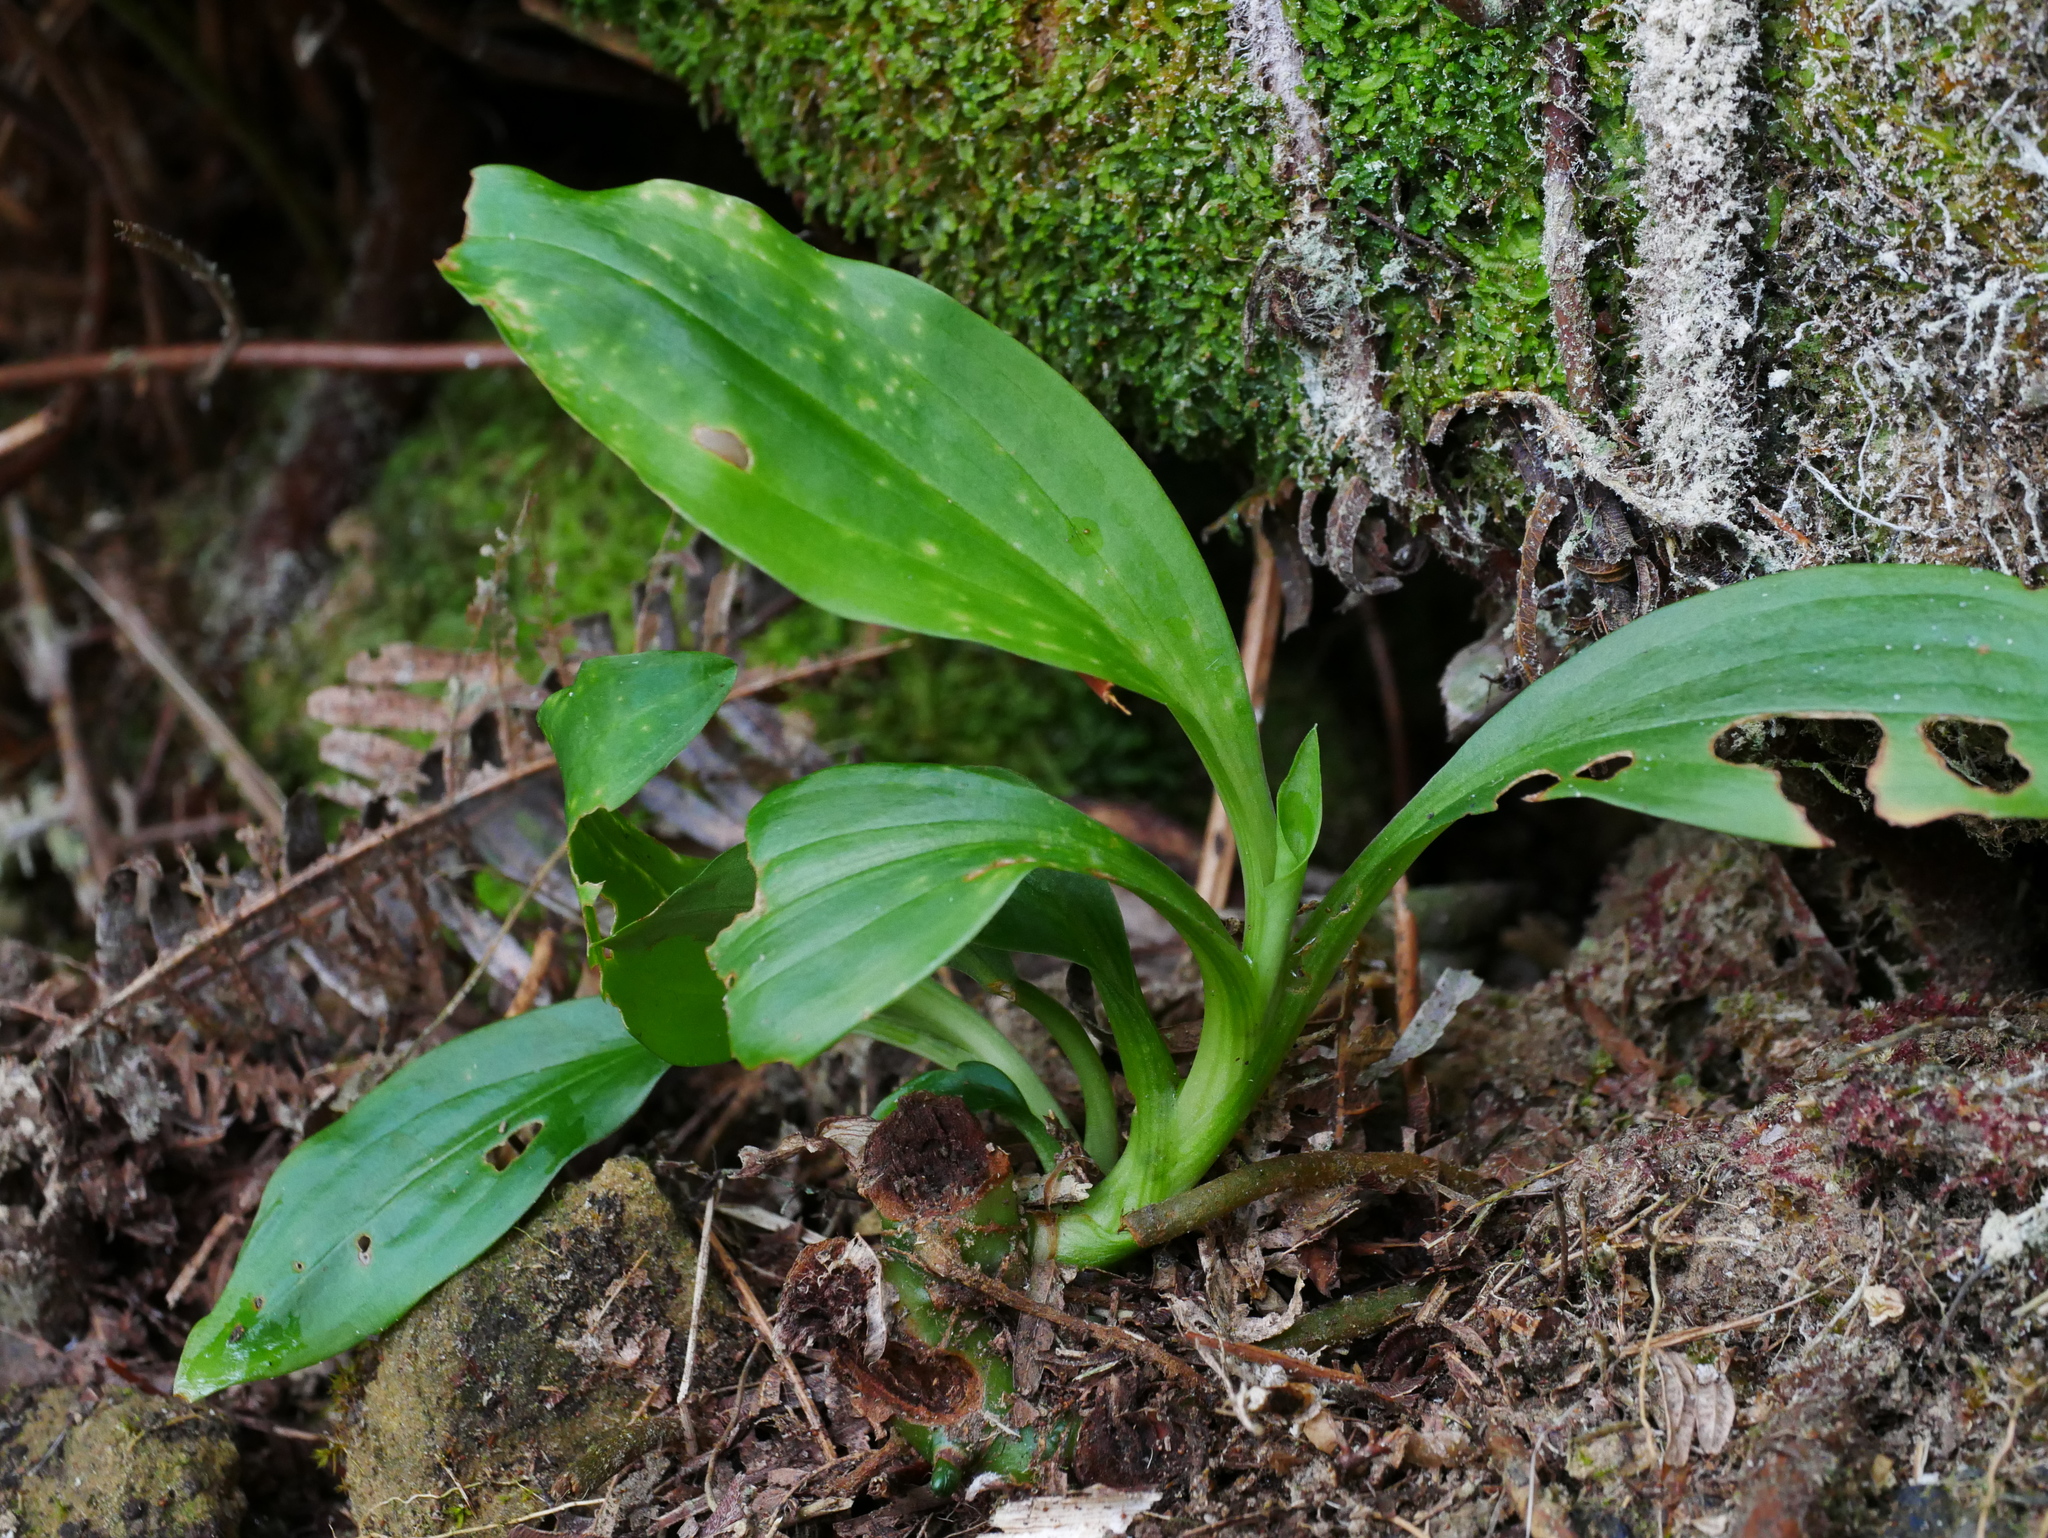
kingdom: Plantae
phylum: Tracheophyta
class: Liliopsida
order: Asparagales
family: Orchidaceae
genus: Goodyera
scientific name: Goodyera procera
